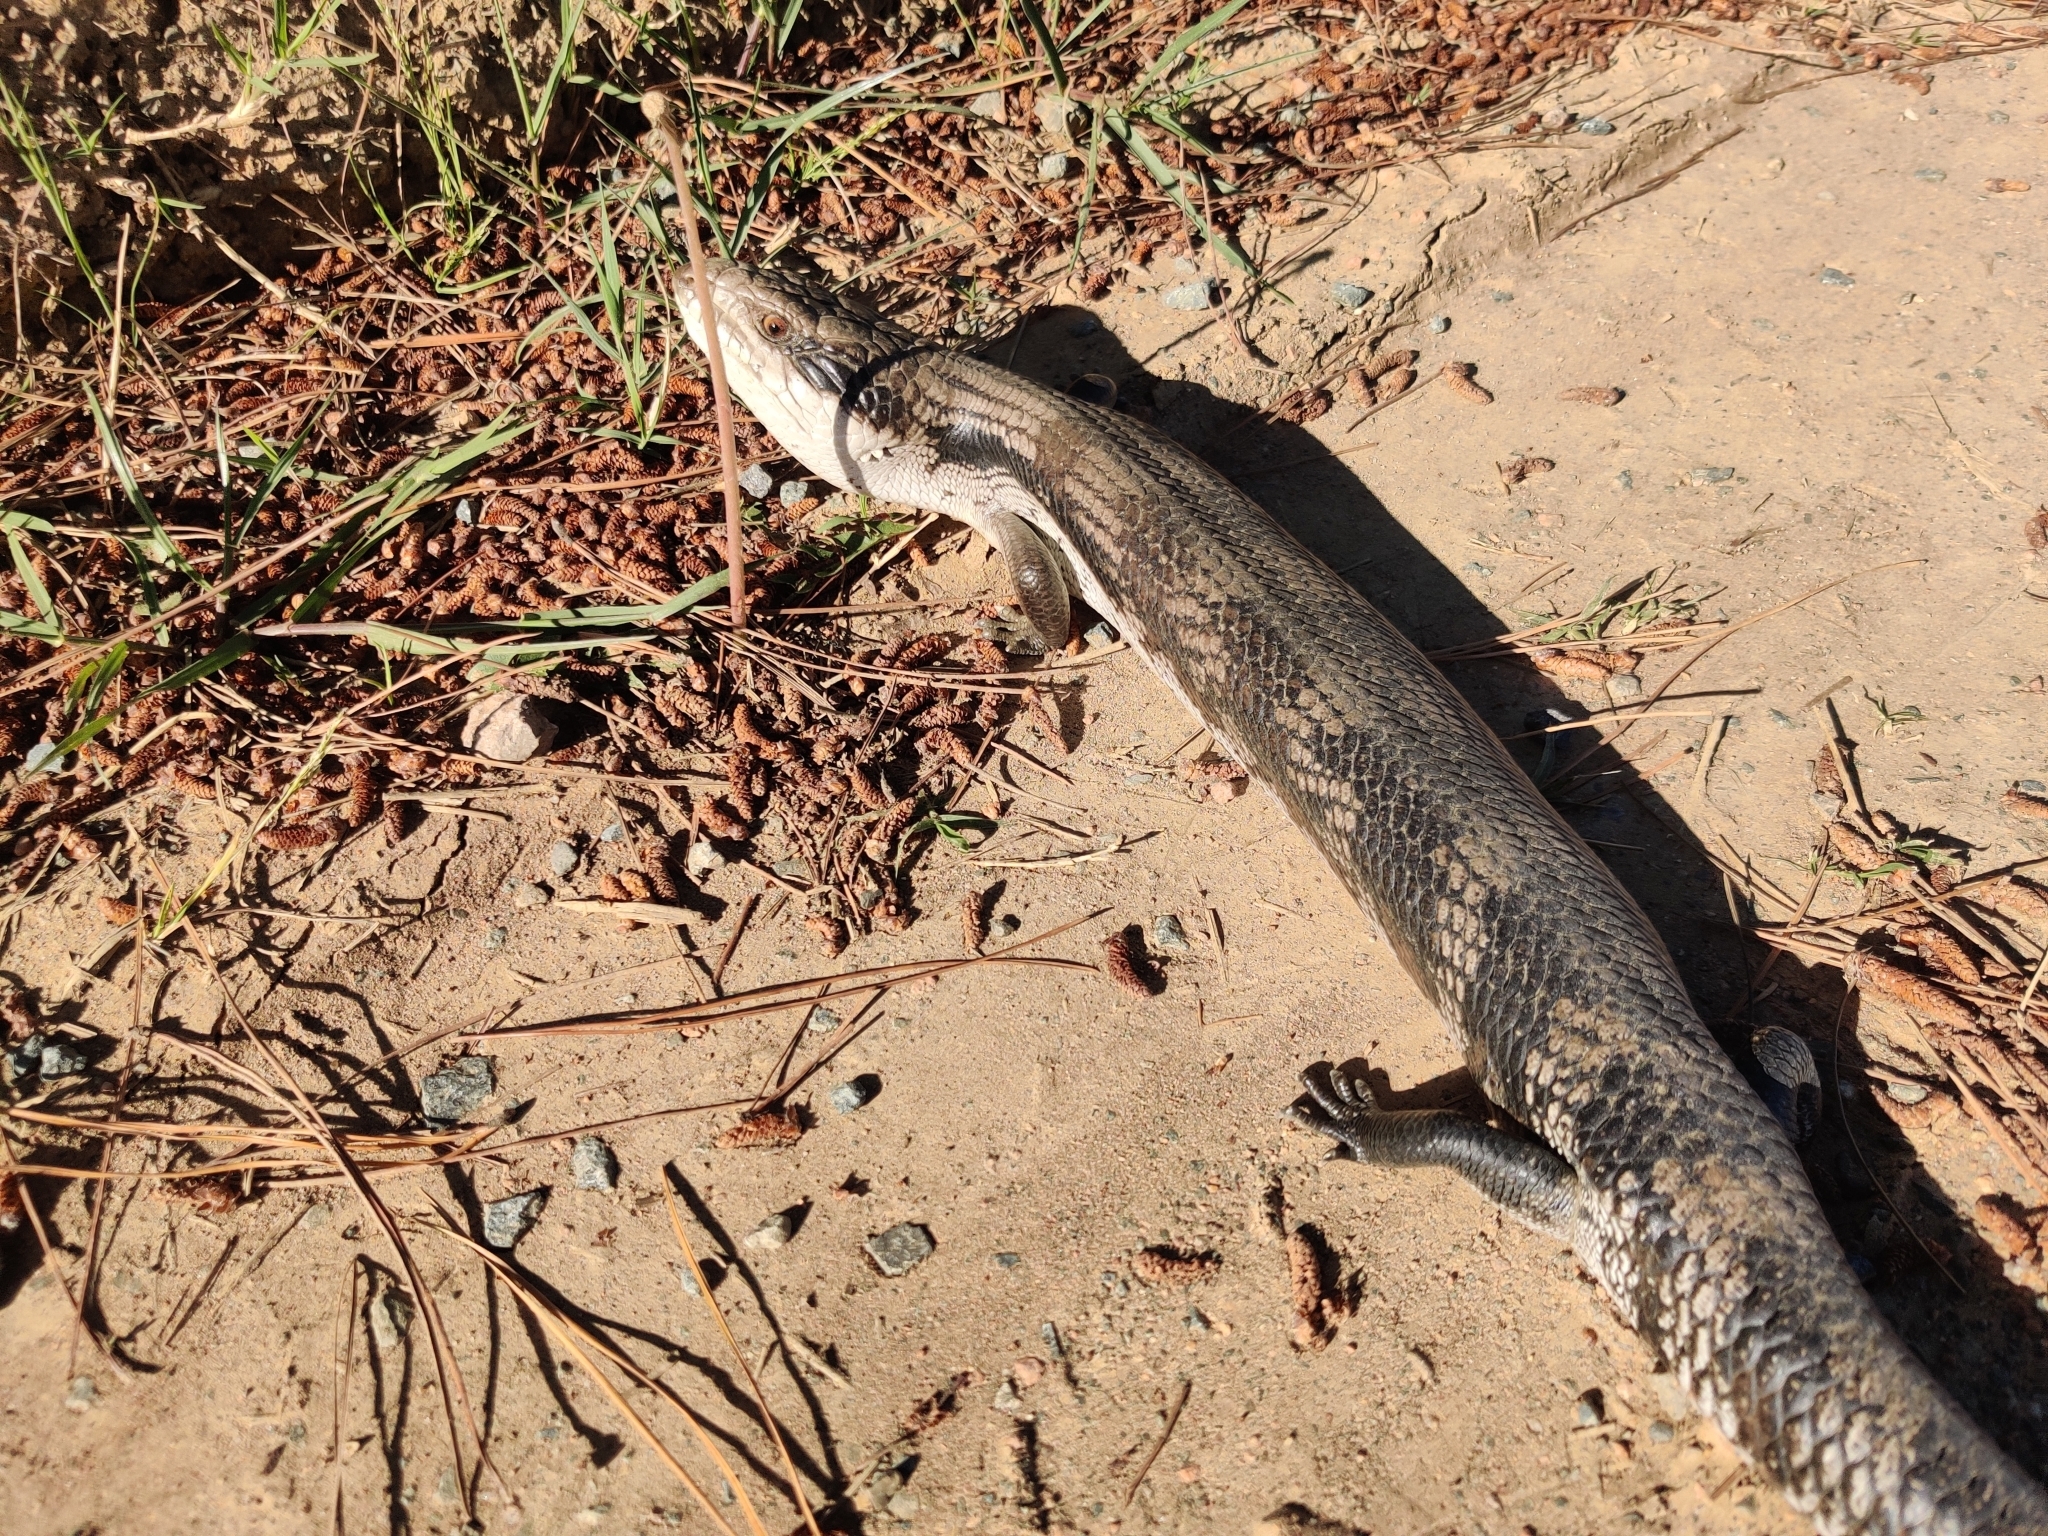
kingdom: Animalia
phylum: Chordata
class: Squamata
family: Scincidae
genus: Tiliqua
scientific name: Tiliqua scincoides
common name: Common bluetongue
